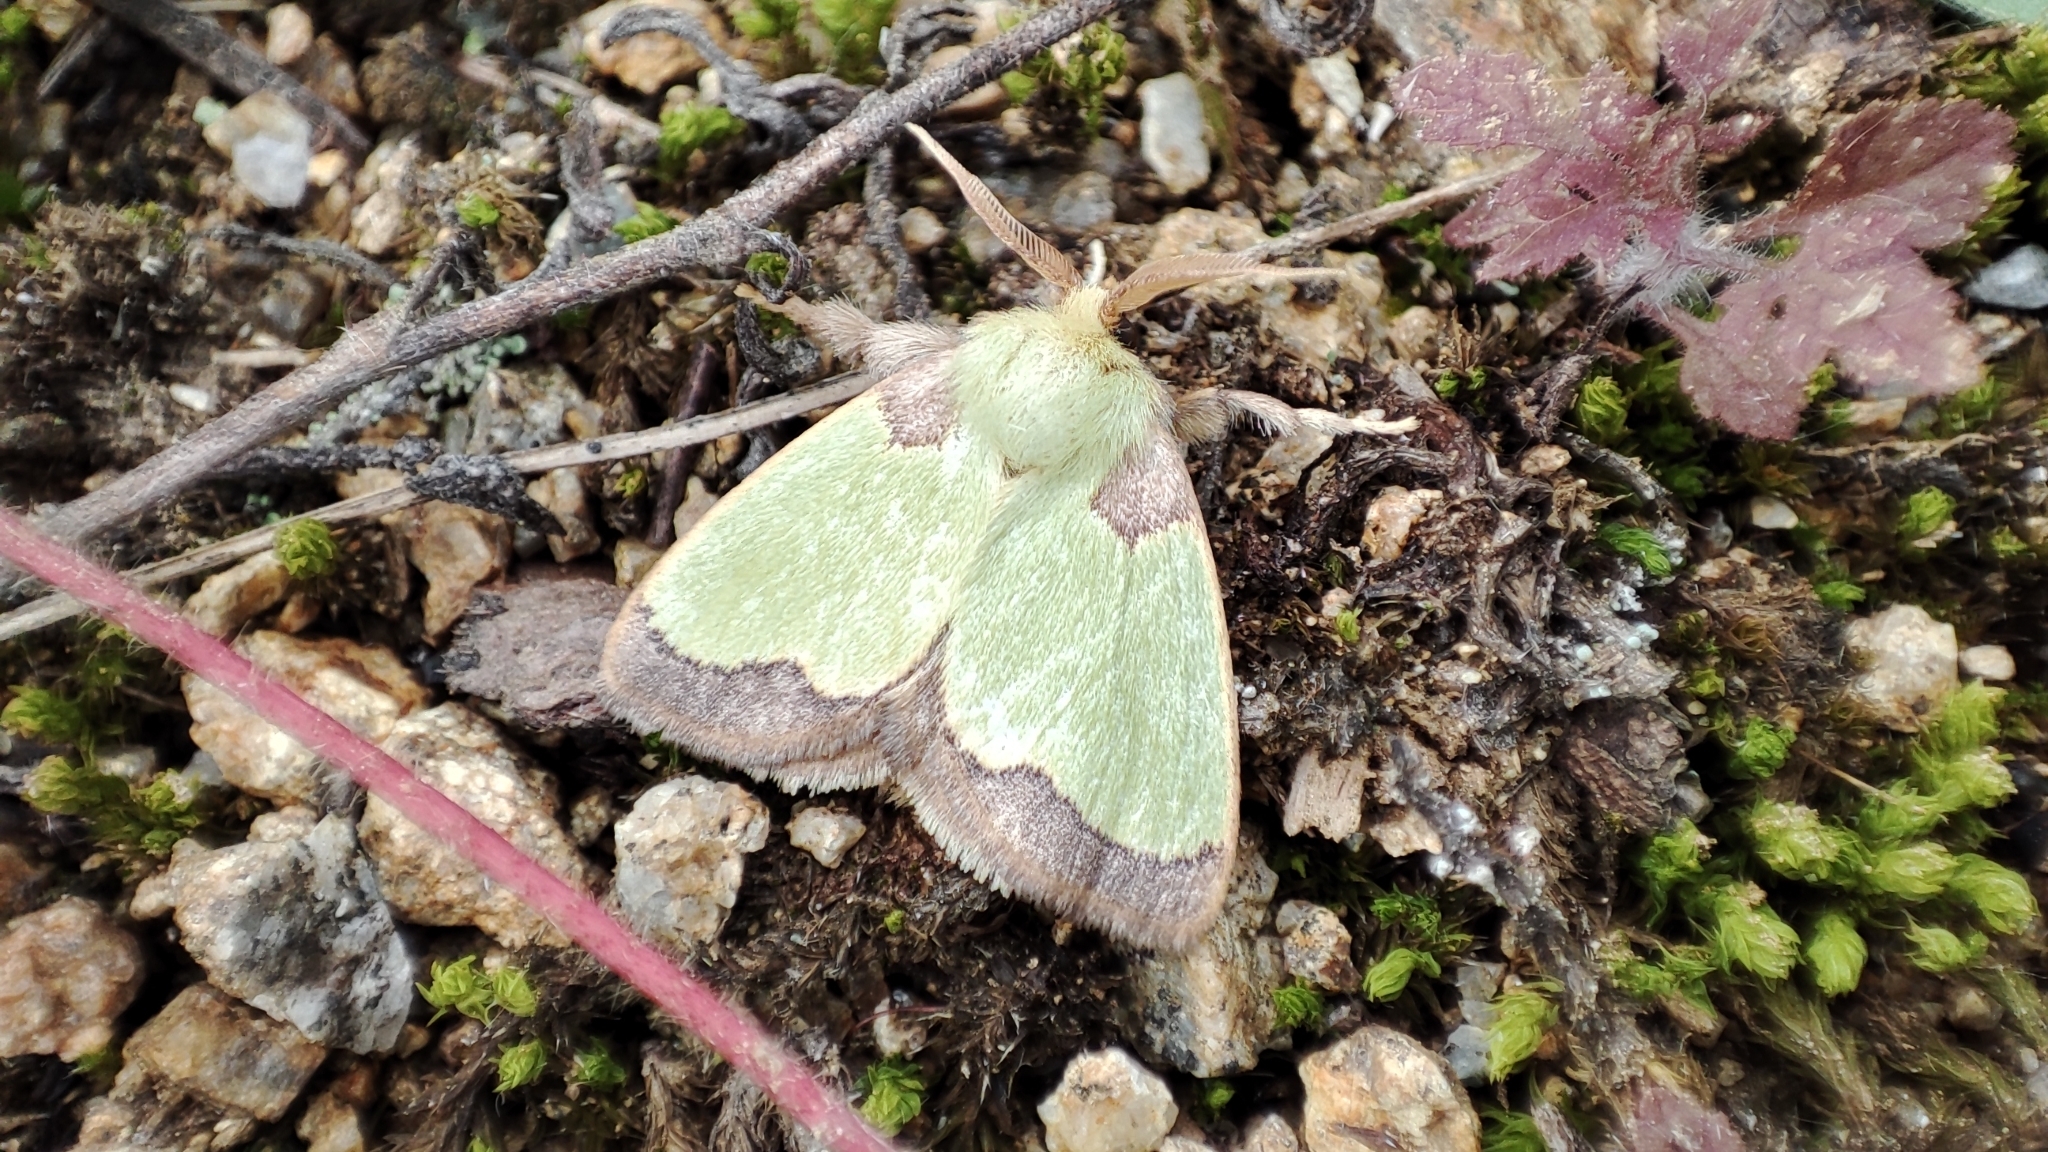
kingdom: Animalia
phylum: Arthropoda
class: Insecta
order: Lepidoptera
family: Limacodidae
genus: Parasa
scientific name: Parasa hilarula
